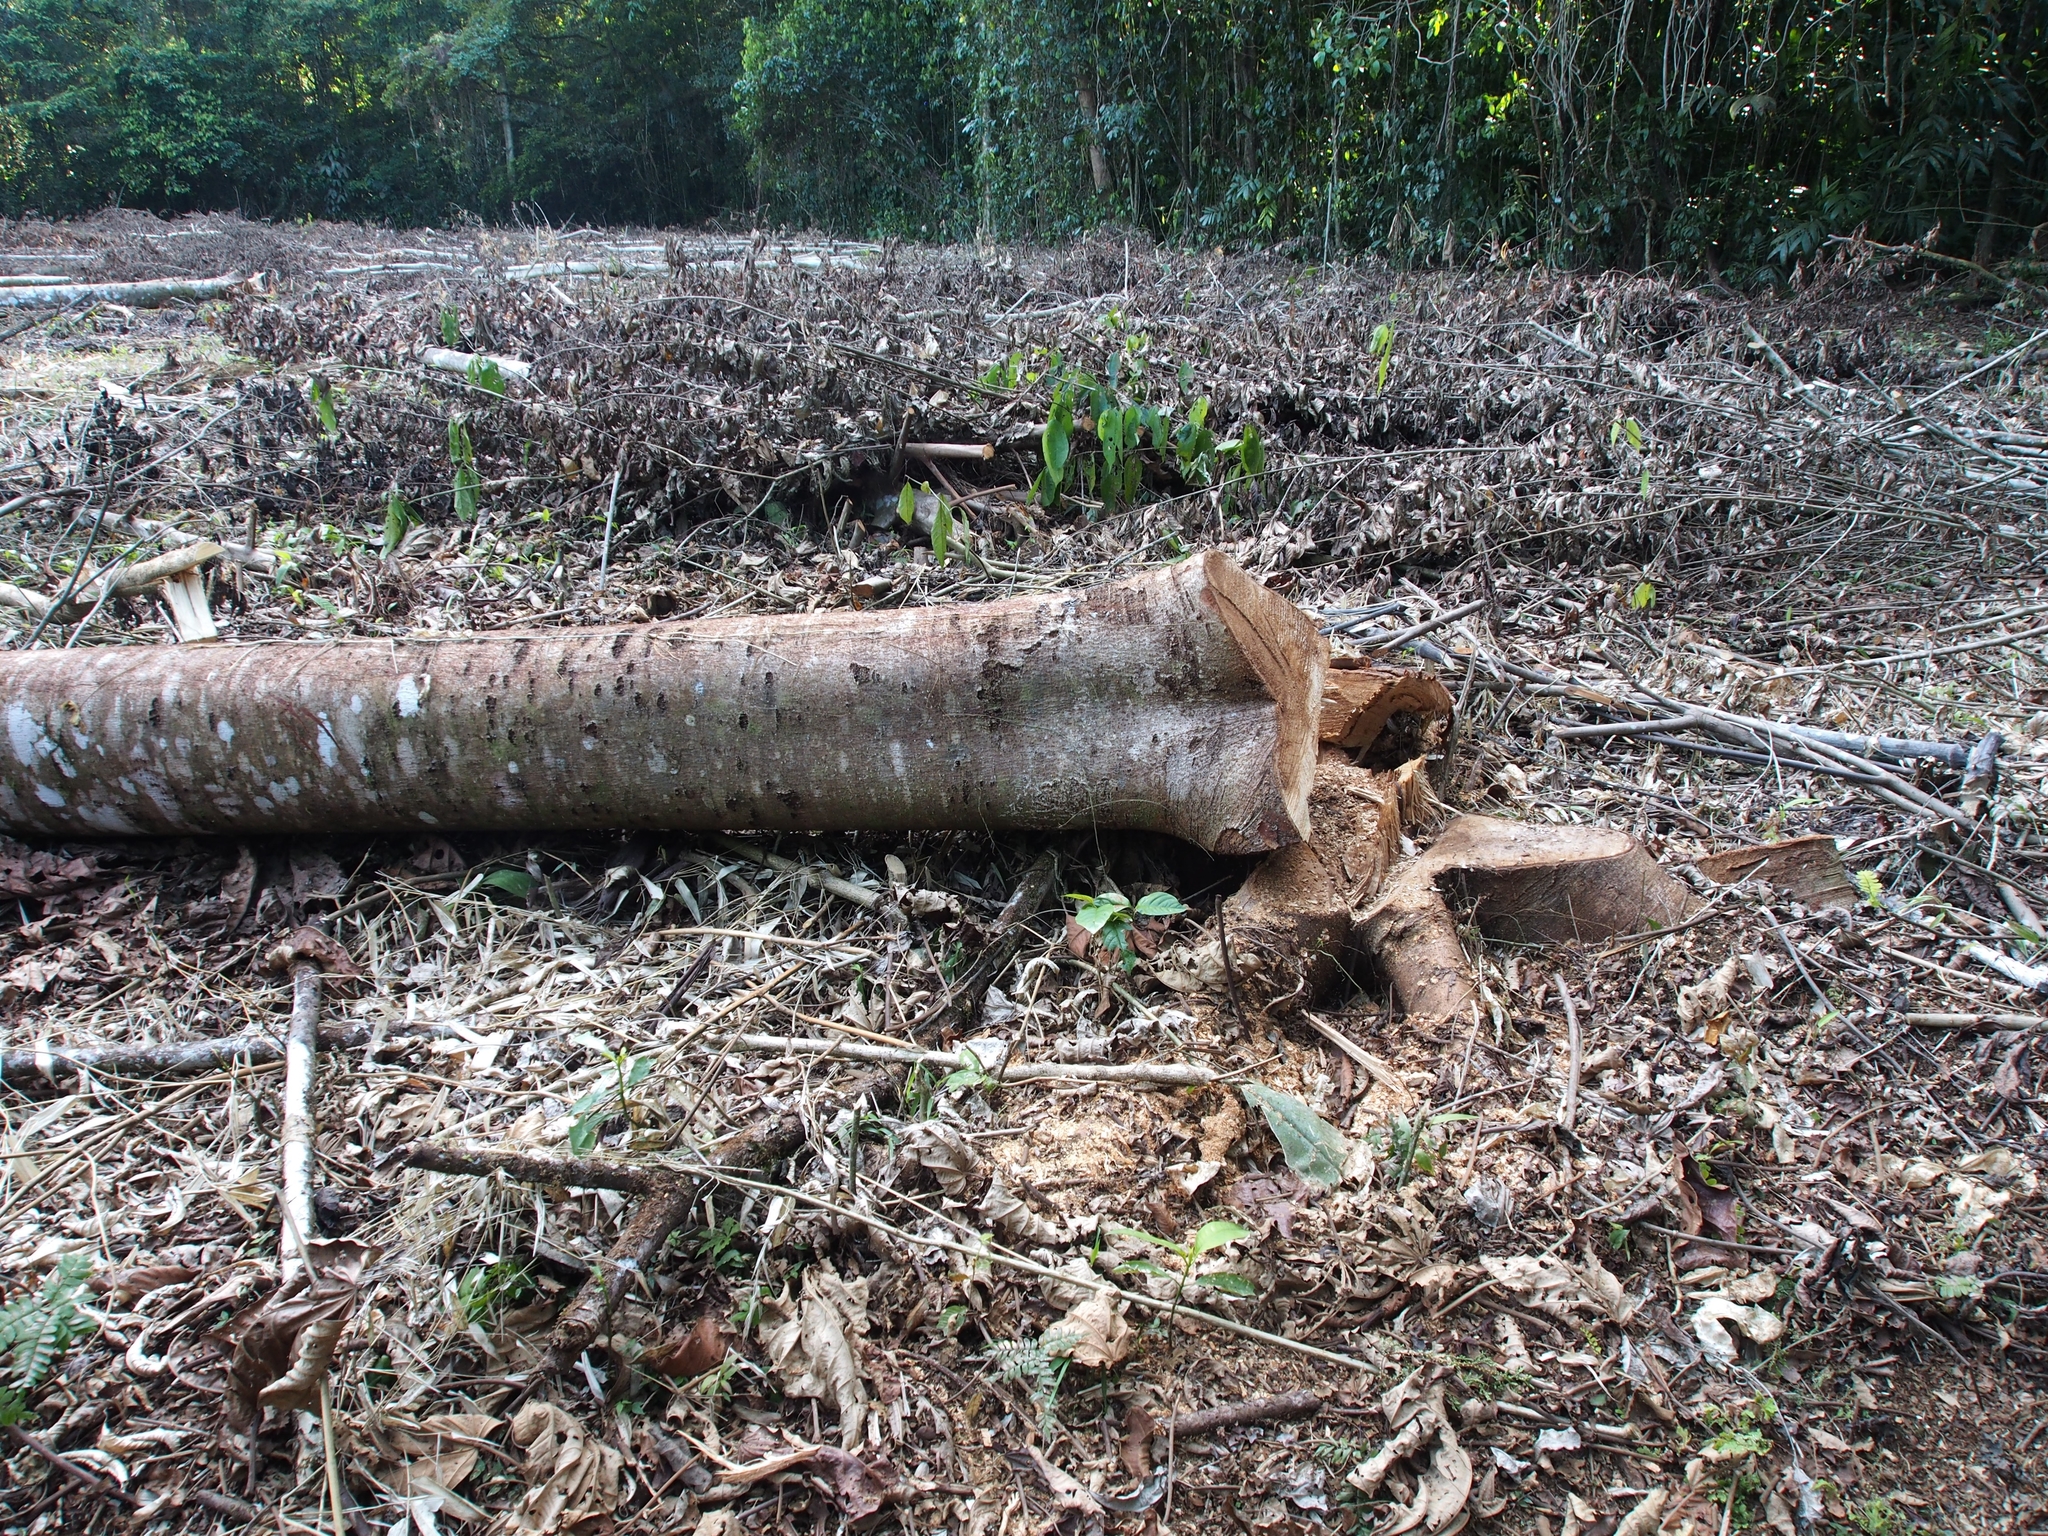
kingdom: Plantae
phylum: Tracheophyta
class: Magnoliopsida
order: Malvales
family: Malvaceae
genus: Ochroma
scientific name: Ochroma pyramidale
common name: Balsa
